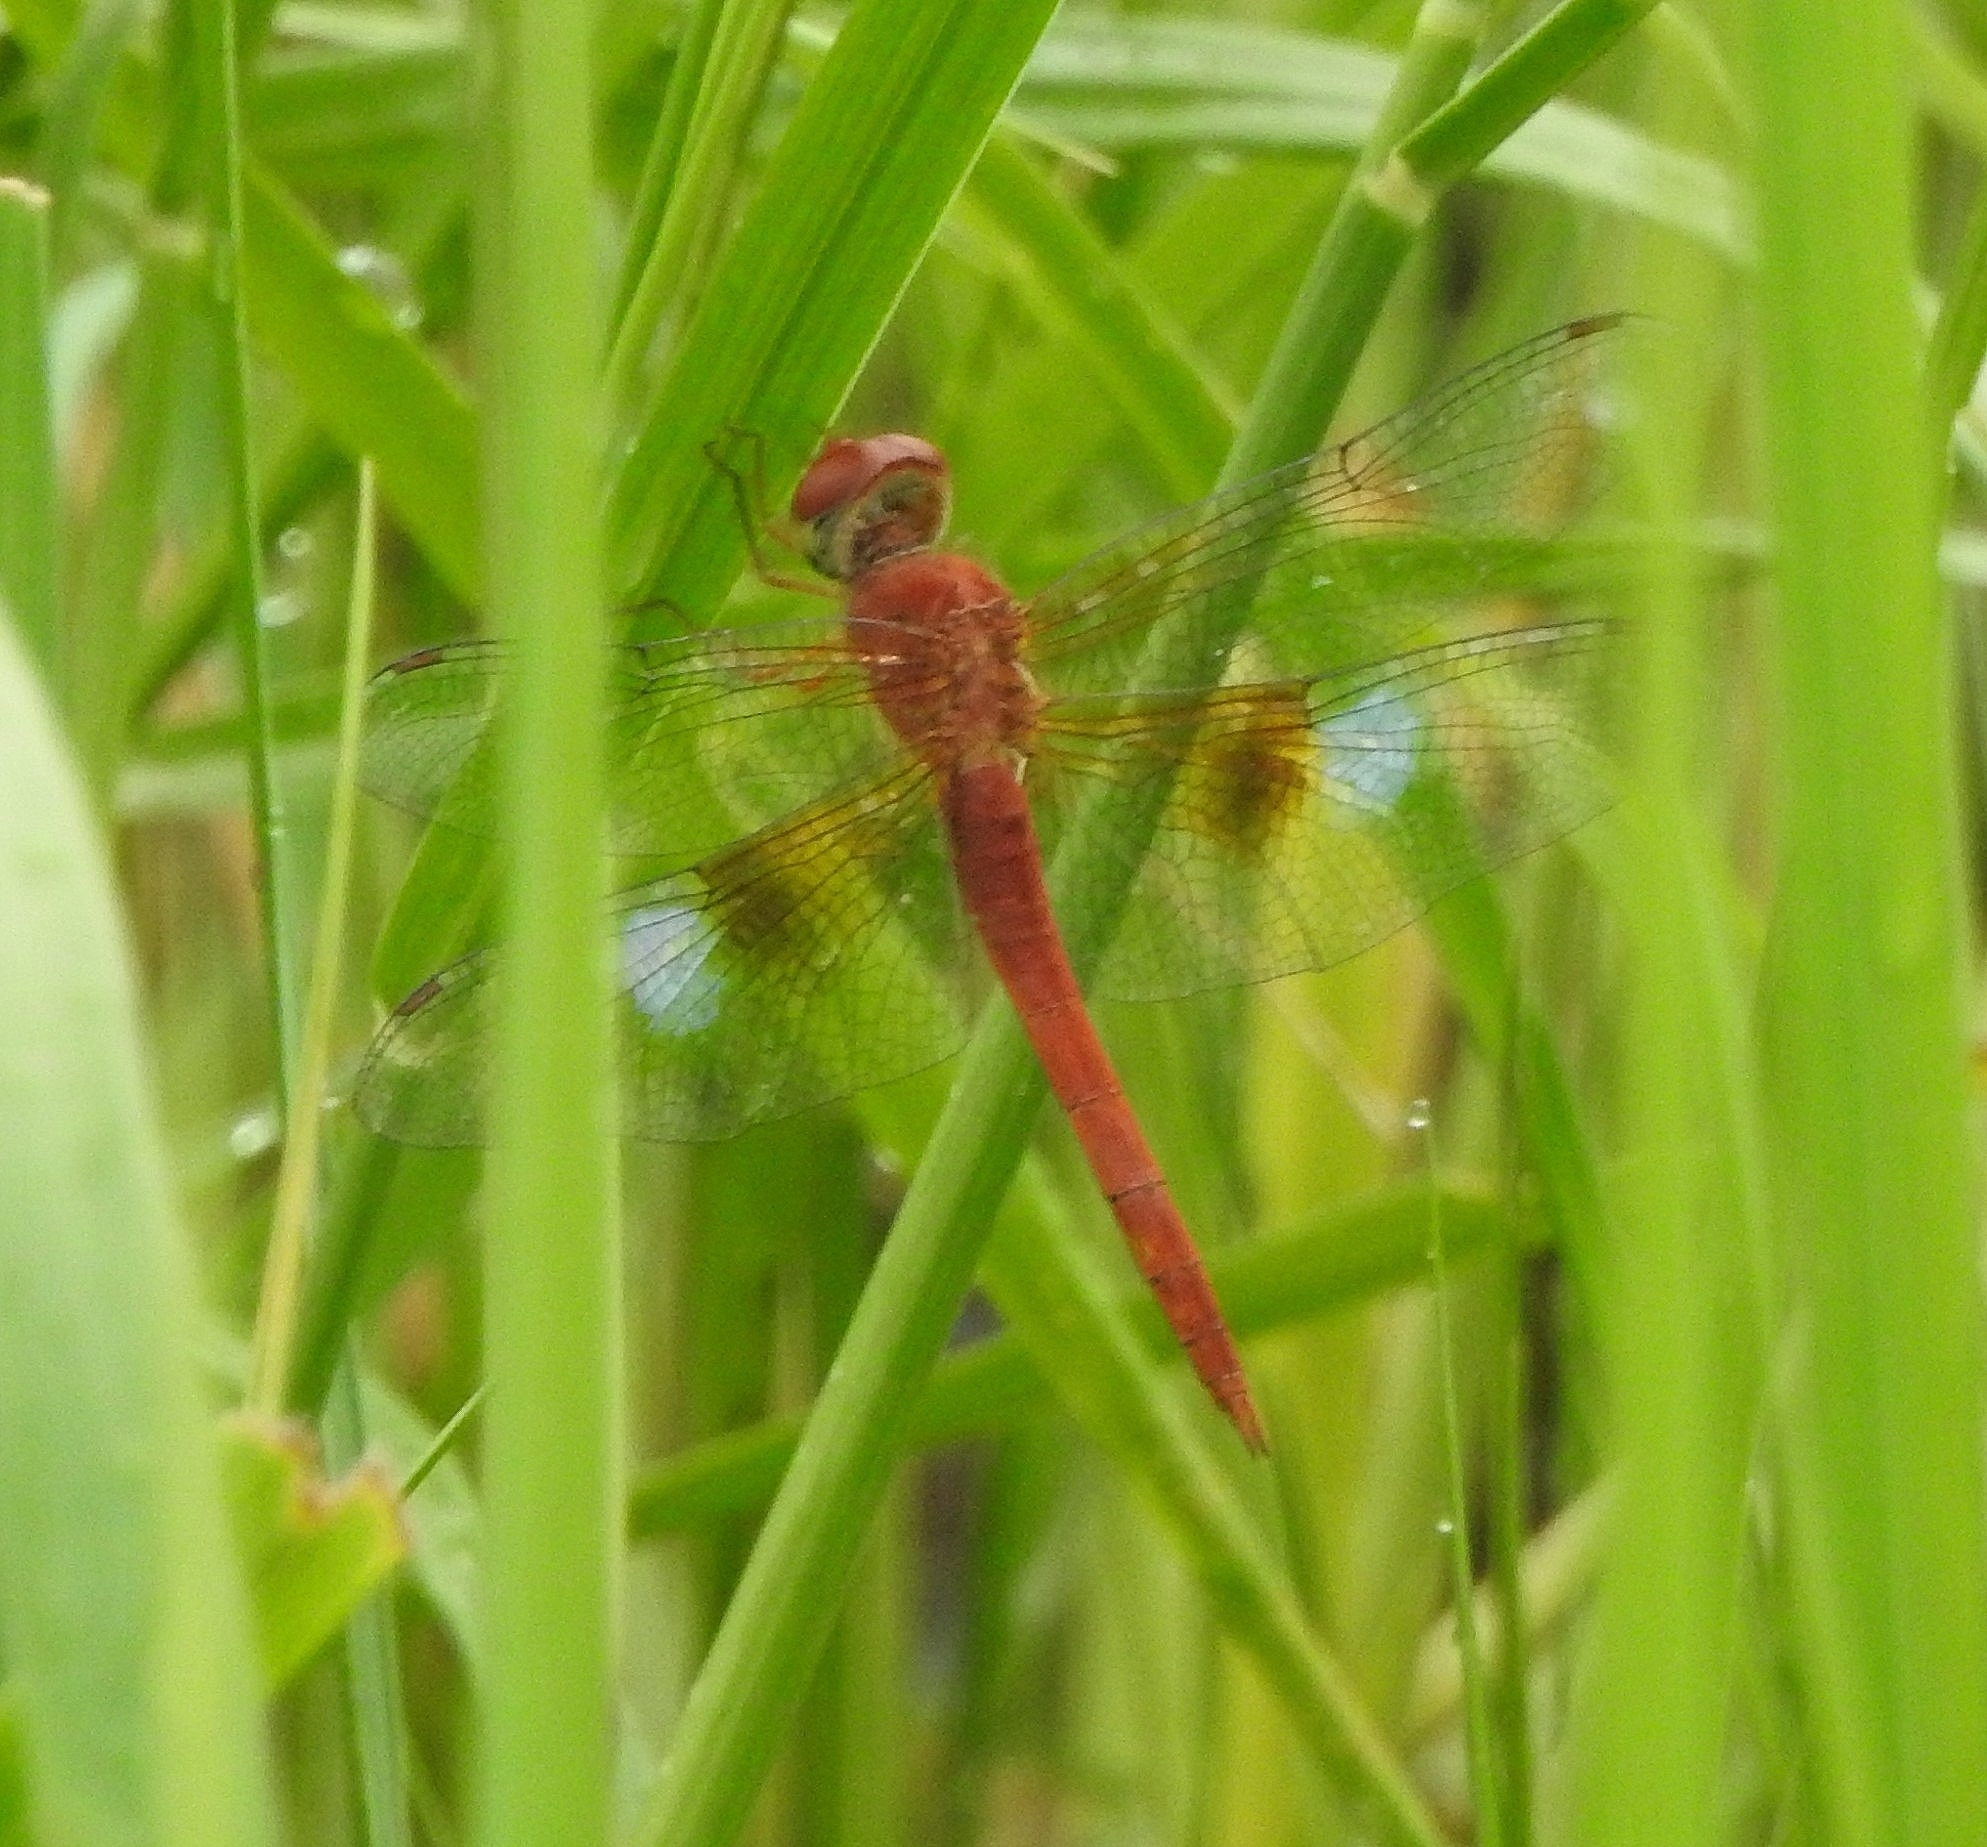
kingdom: Animalia
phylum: Arthropoda
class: Insecta
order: Odonata
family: Libellulidae
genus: Tholymis
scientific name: Tholymis tillarga
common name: Coral-tailed cloud wing
